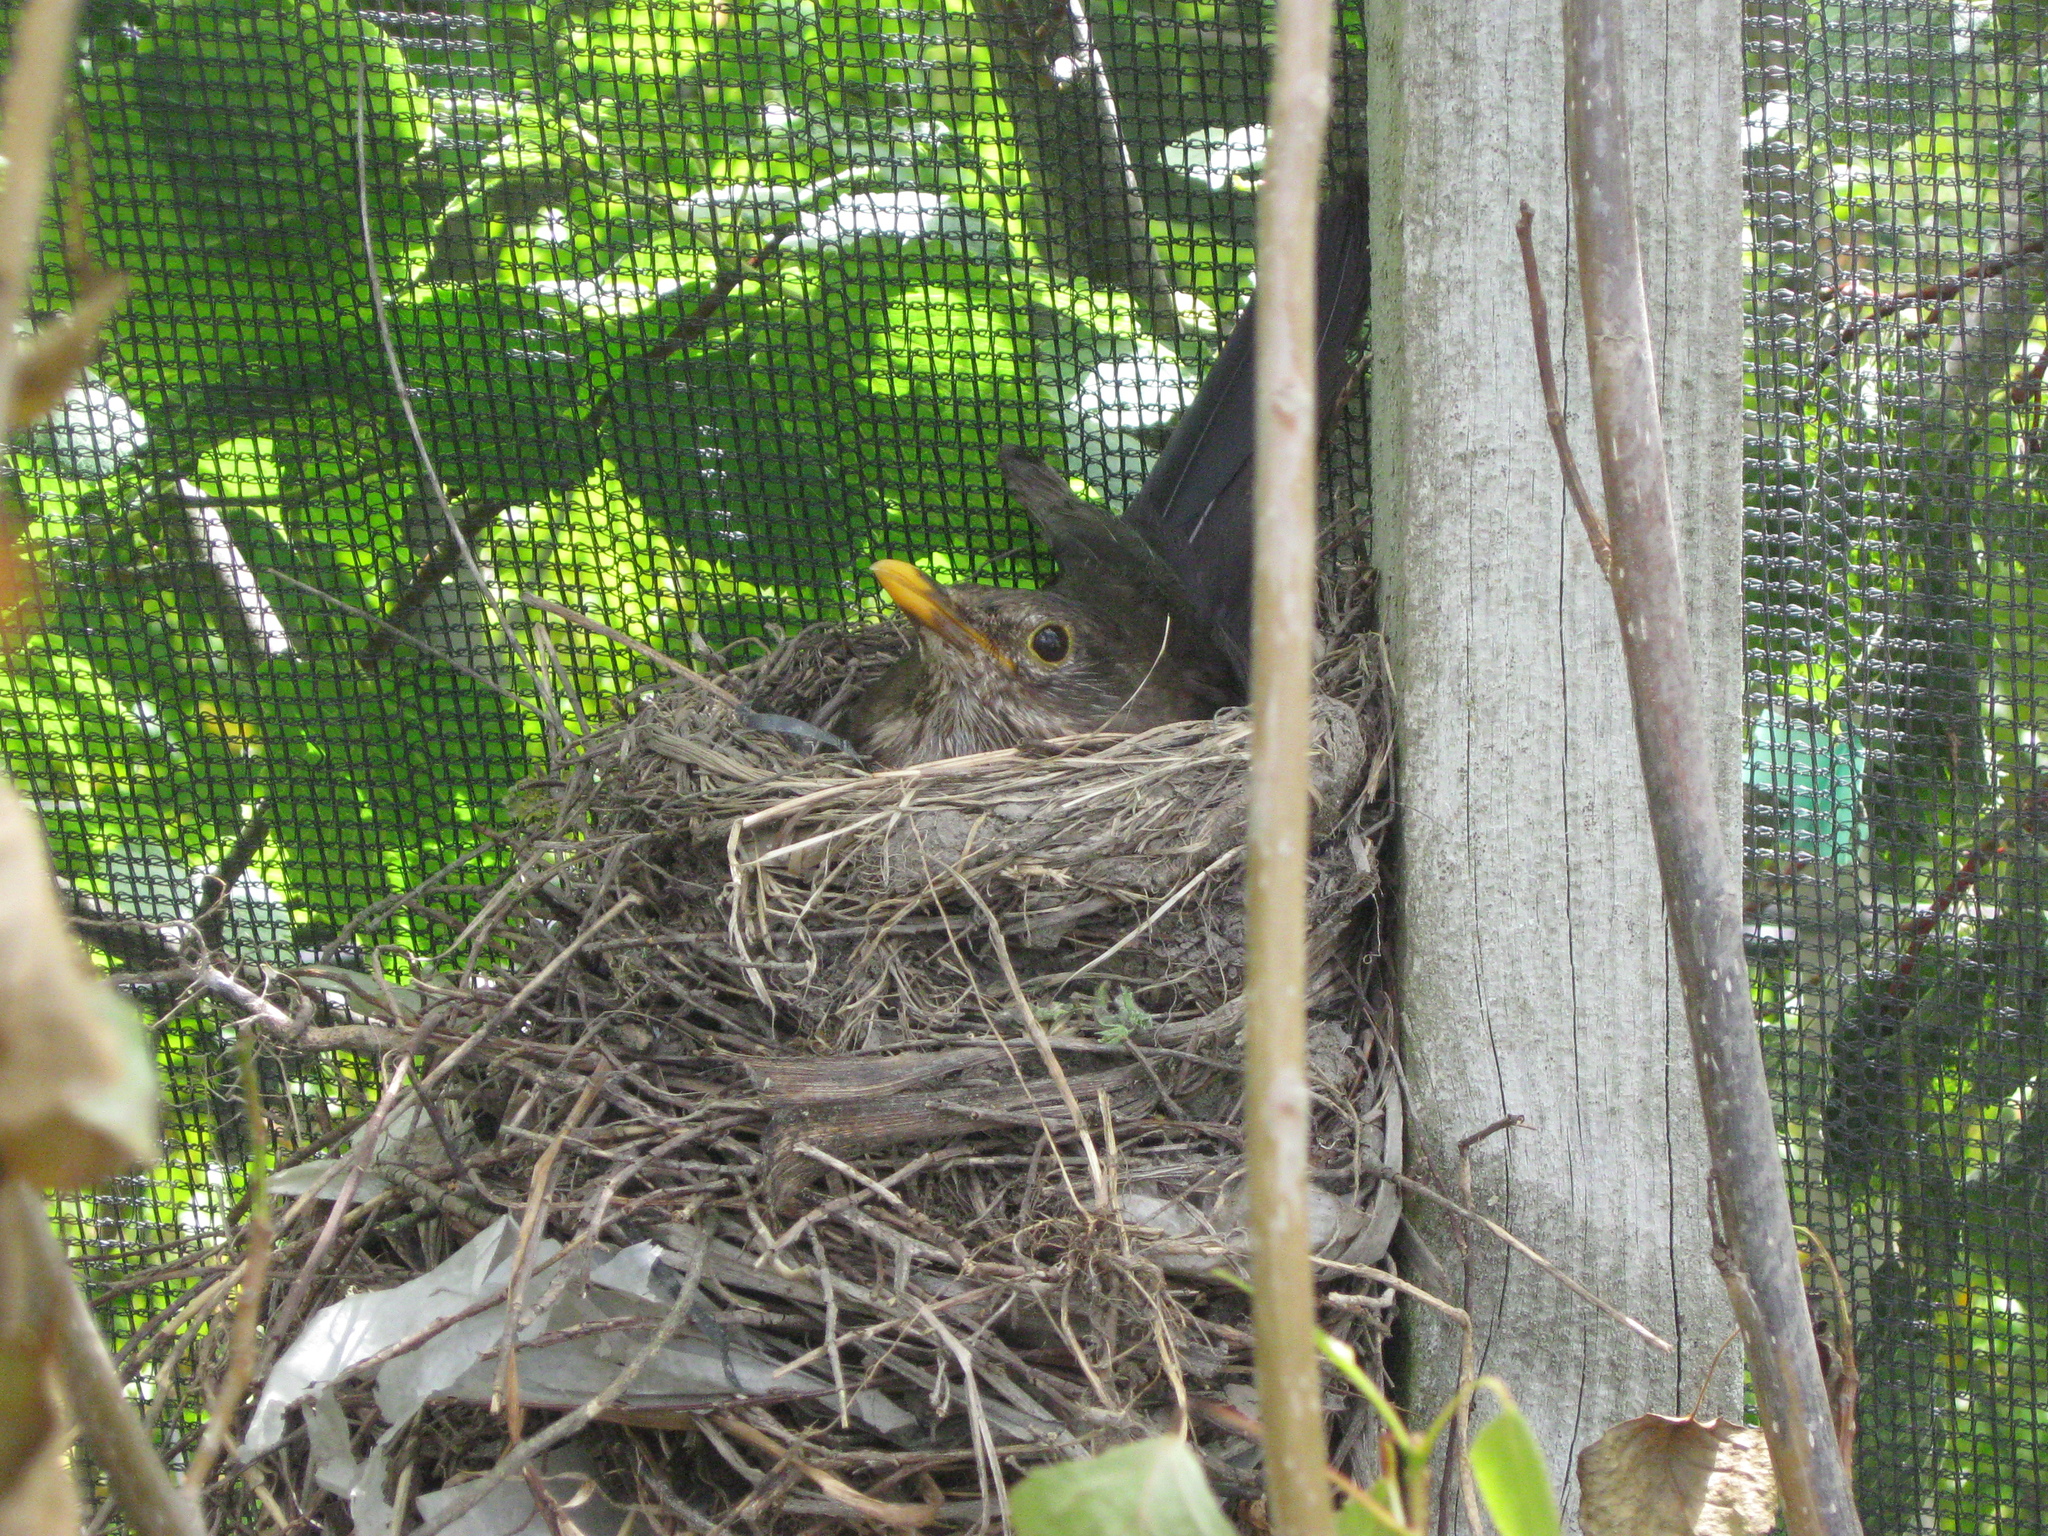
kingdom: Animalia
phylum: Chordata
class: Aves
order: Passeriformes
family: Turdidae
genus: Turdus
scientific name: Turdus merula
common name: Common blackbird
